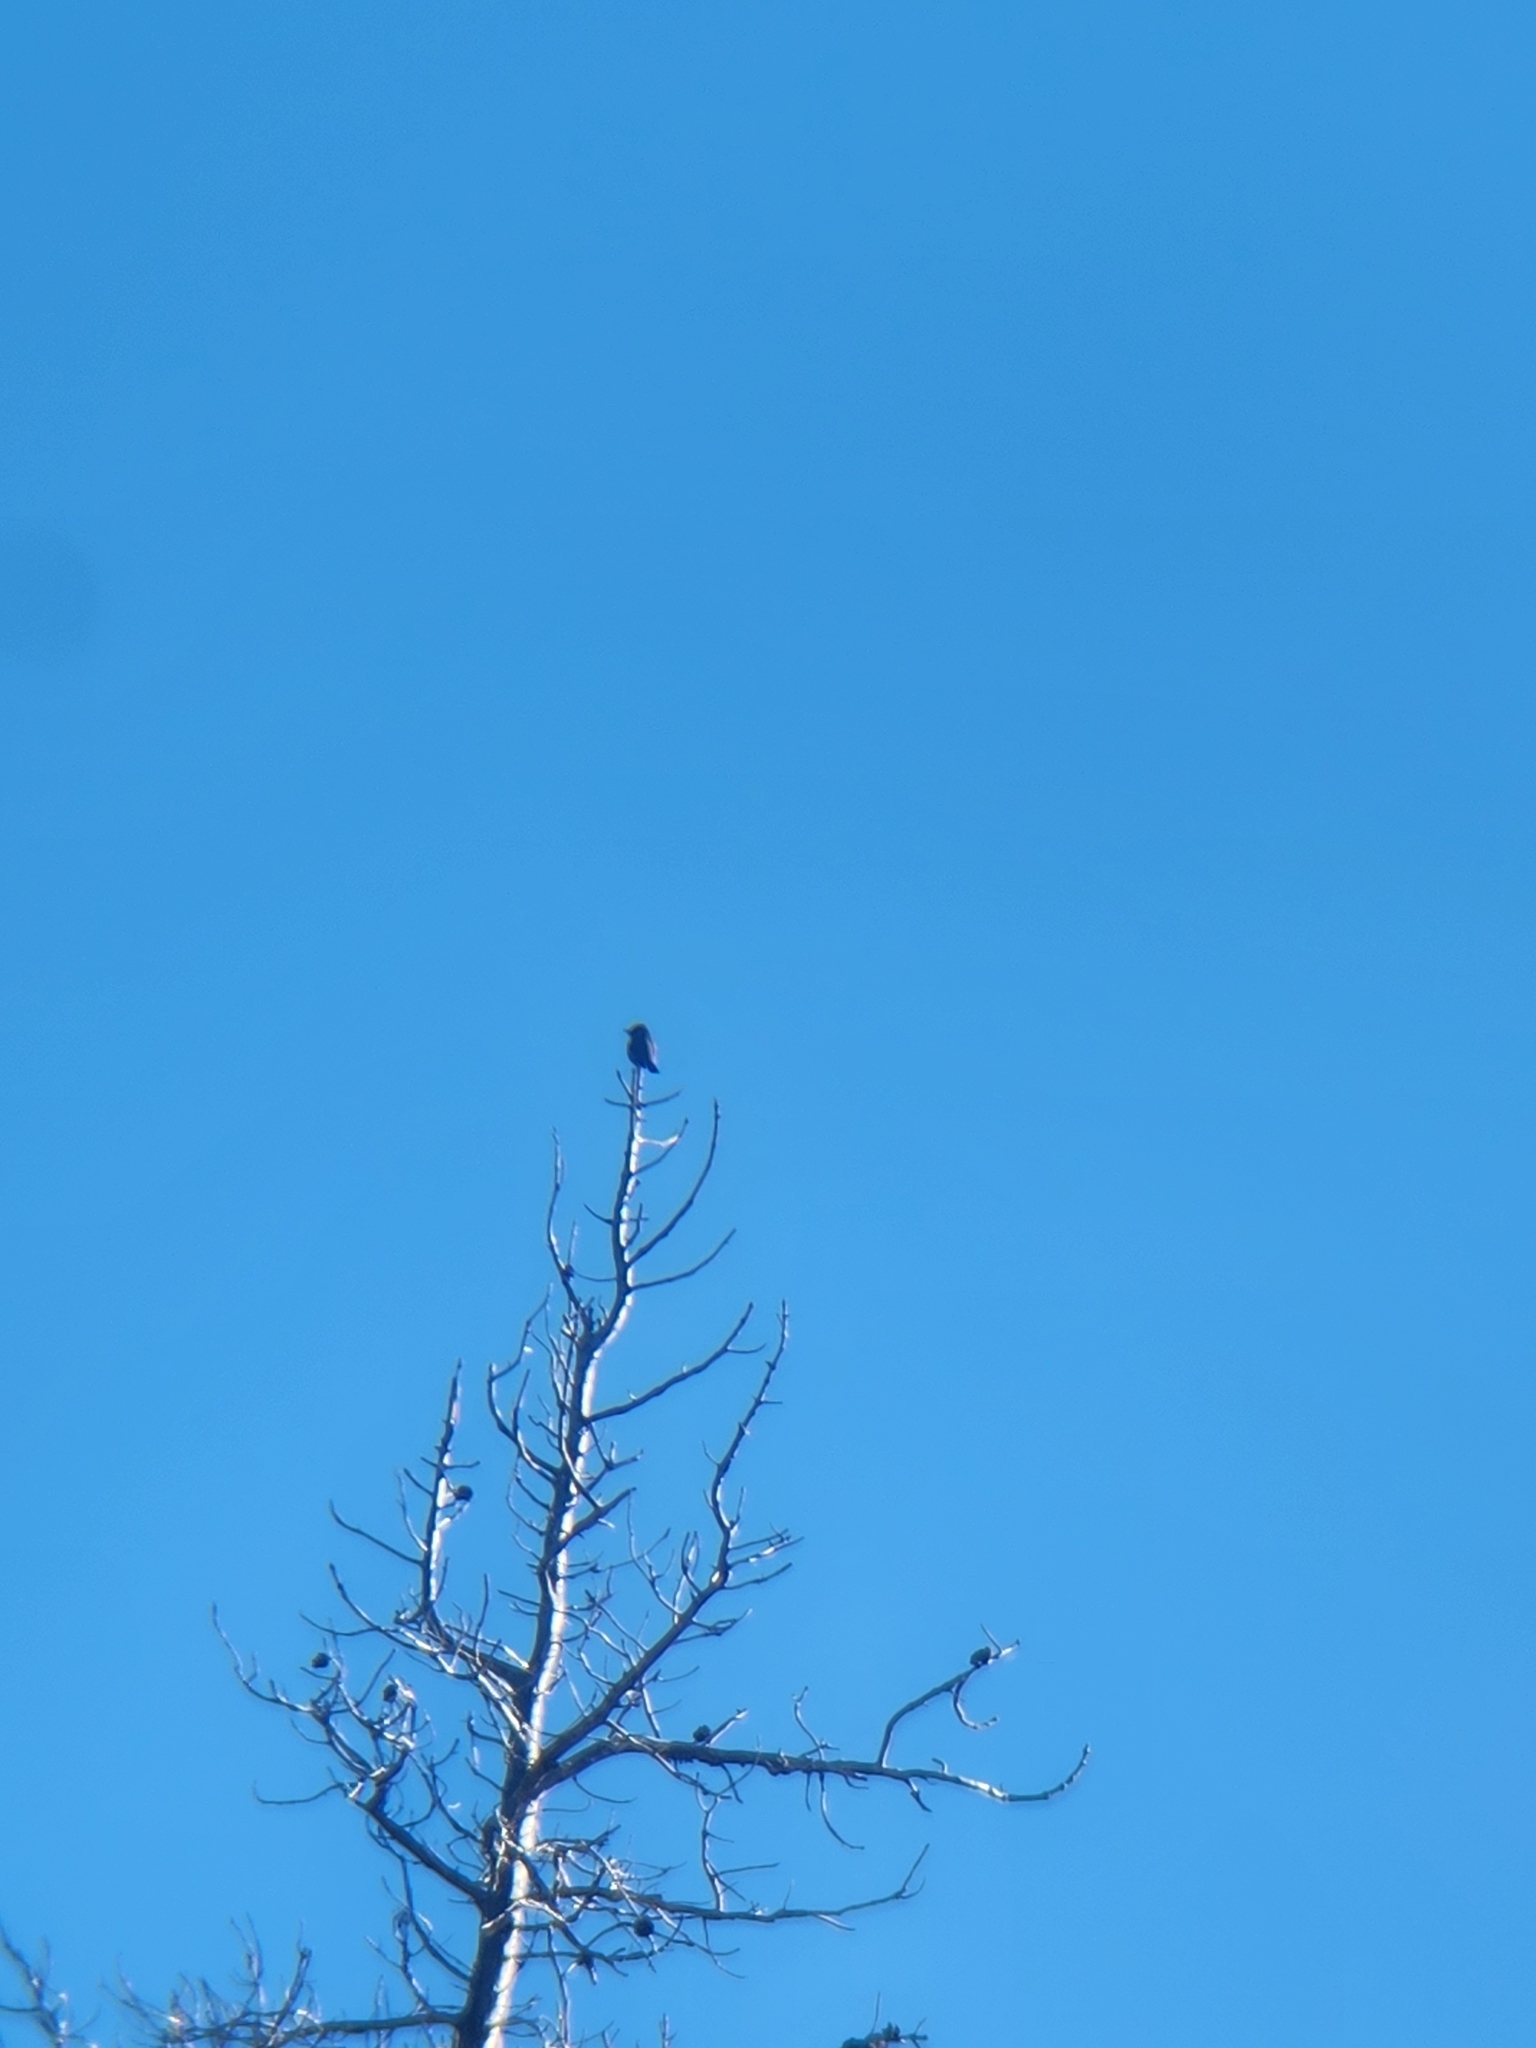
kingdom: Animalia
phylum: Chordata
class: Aves
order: Passeriformes
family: Tyrannidae
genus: Contopus
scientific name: Contopus cooperi
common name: Olive-sided flycatcher
